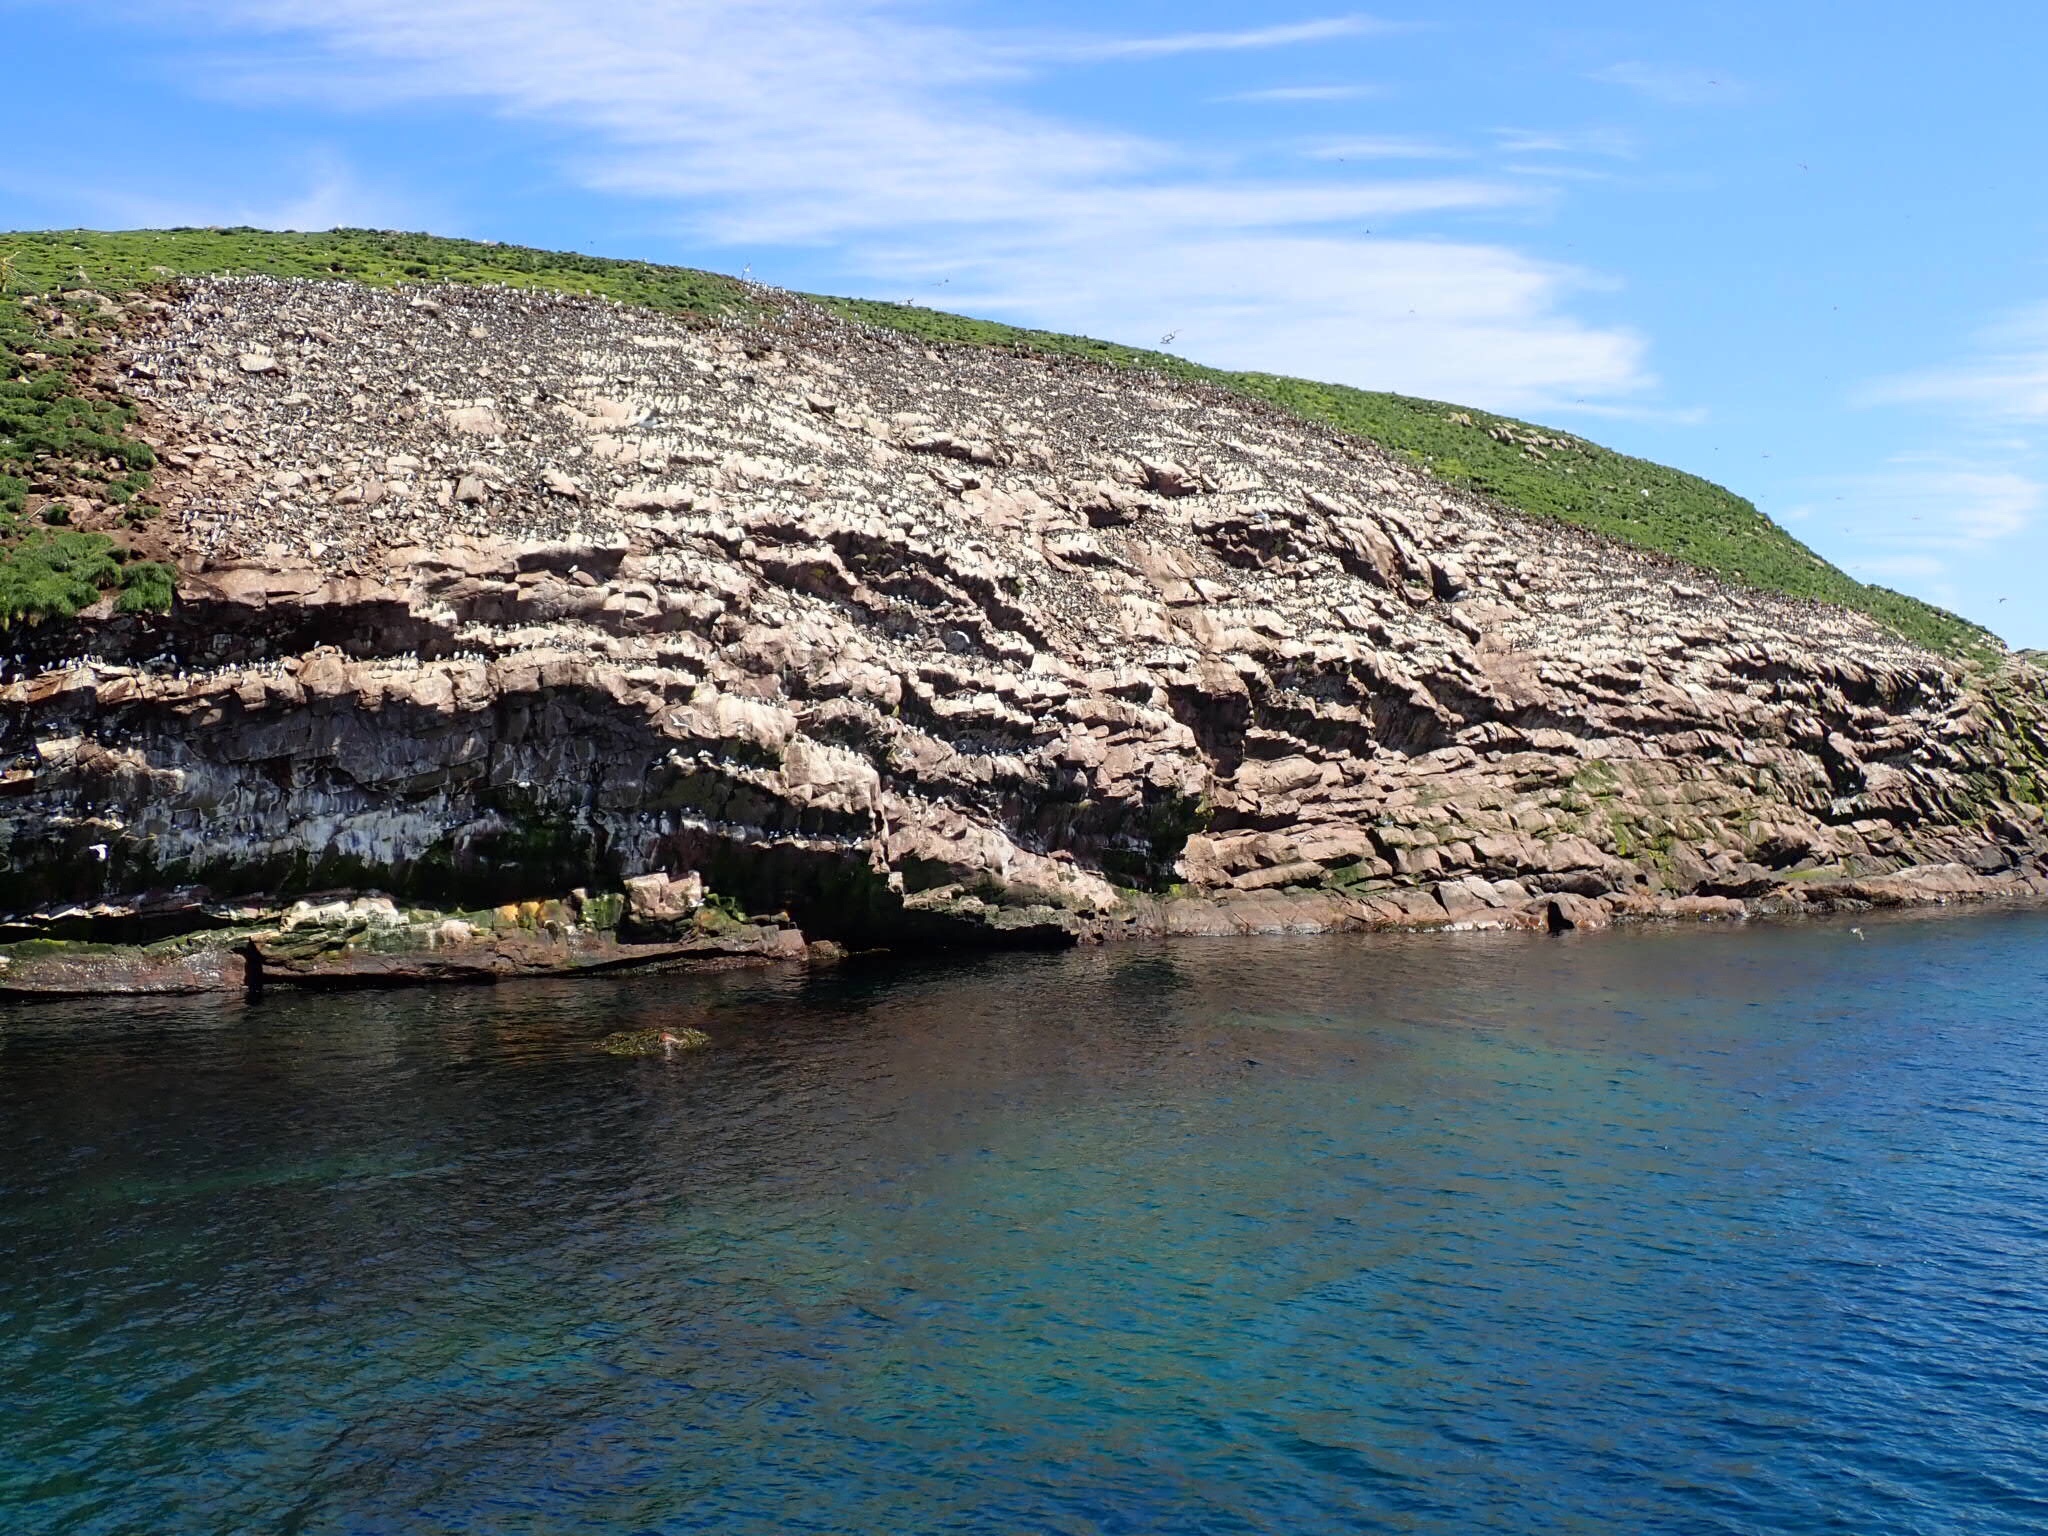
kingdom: Animalia
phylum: Chordata
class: Aves
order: Charadriiformes
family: Alcidae
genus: Uria
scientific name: Uria aalge
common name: Common murre
